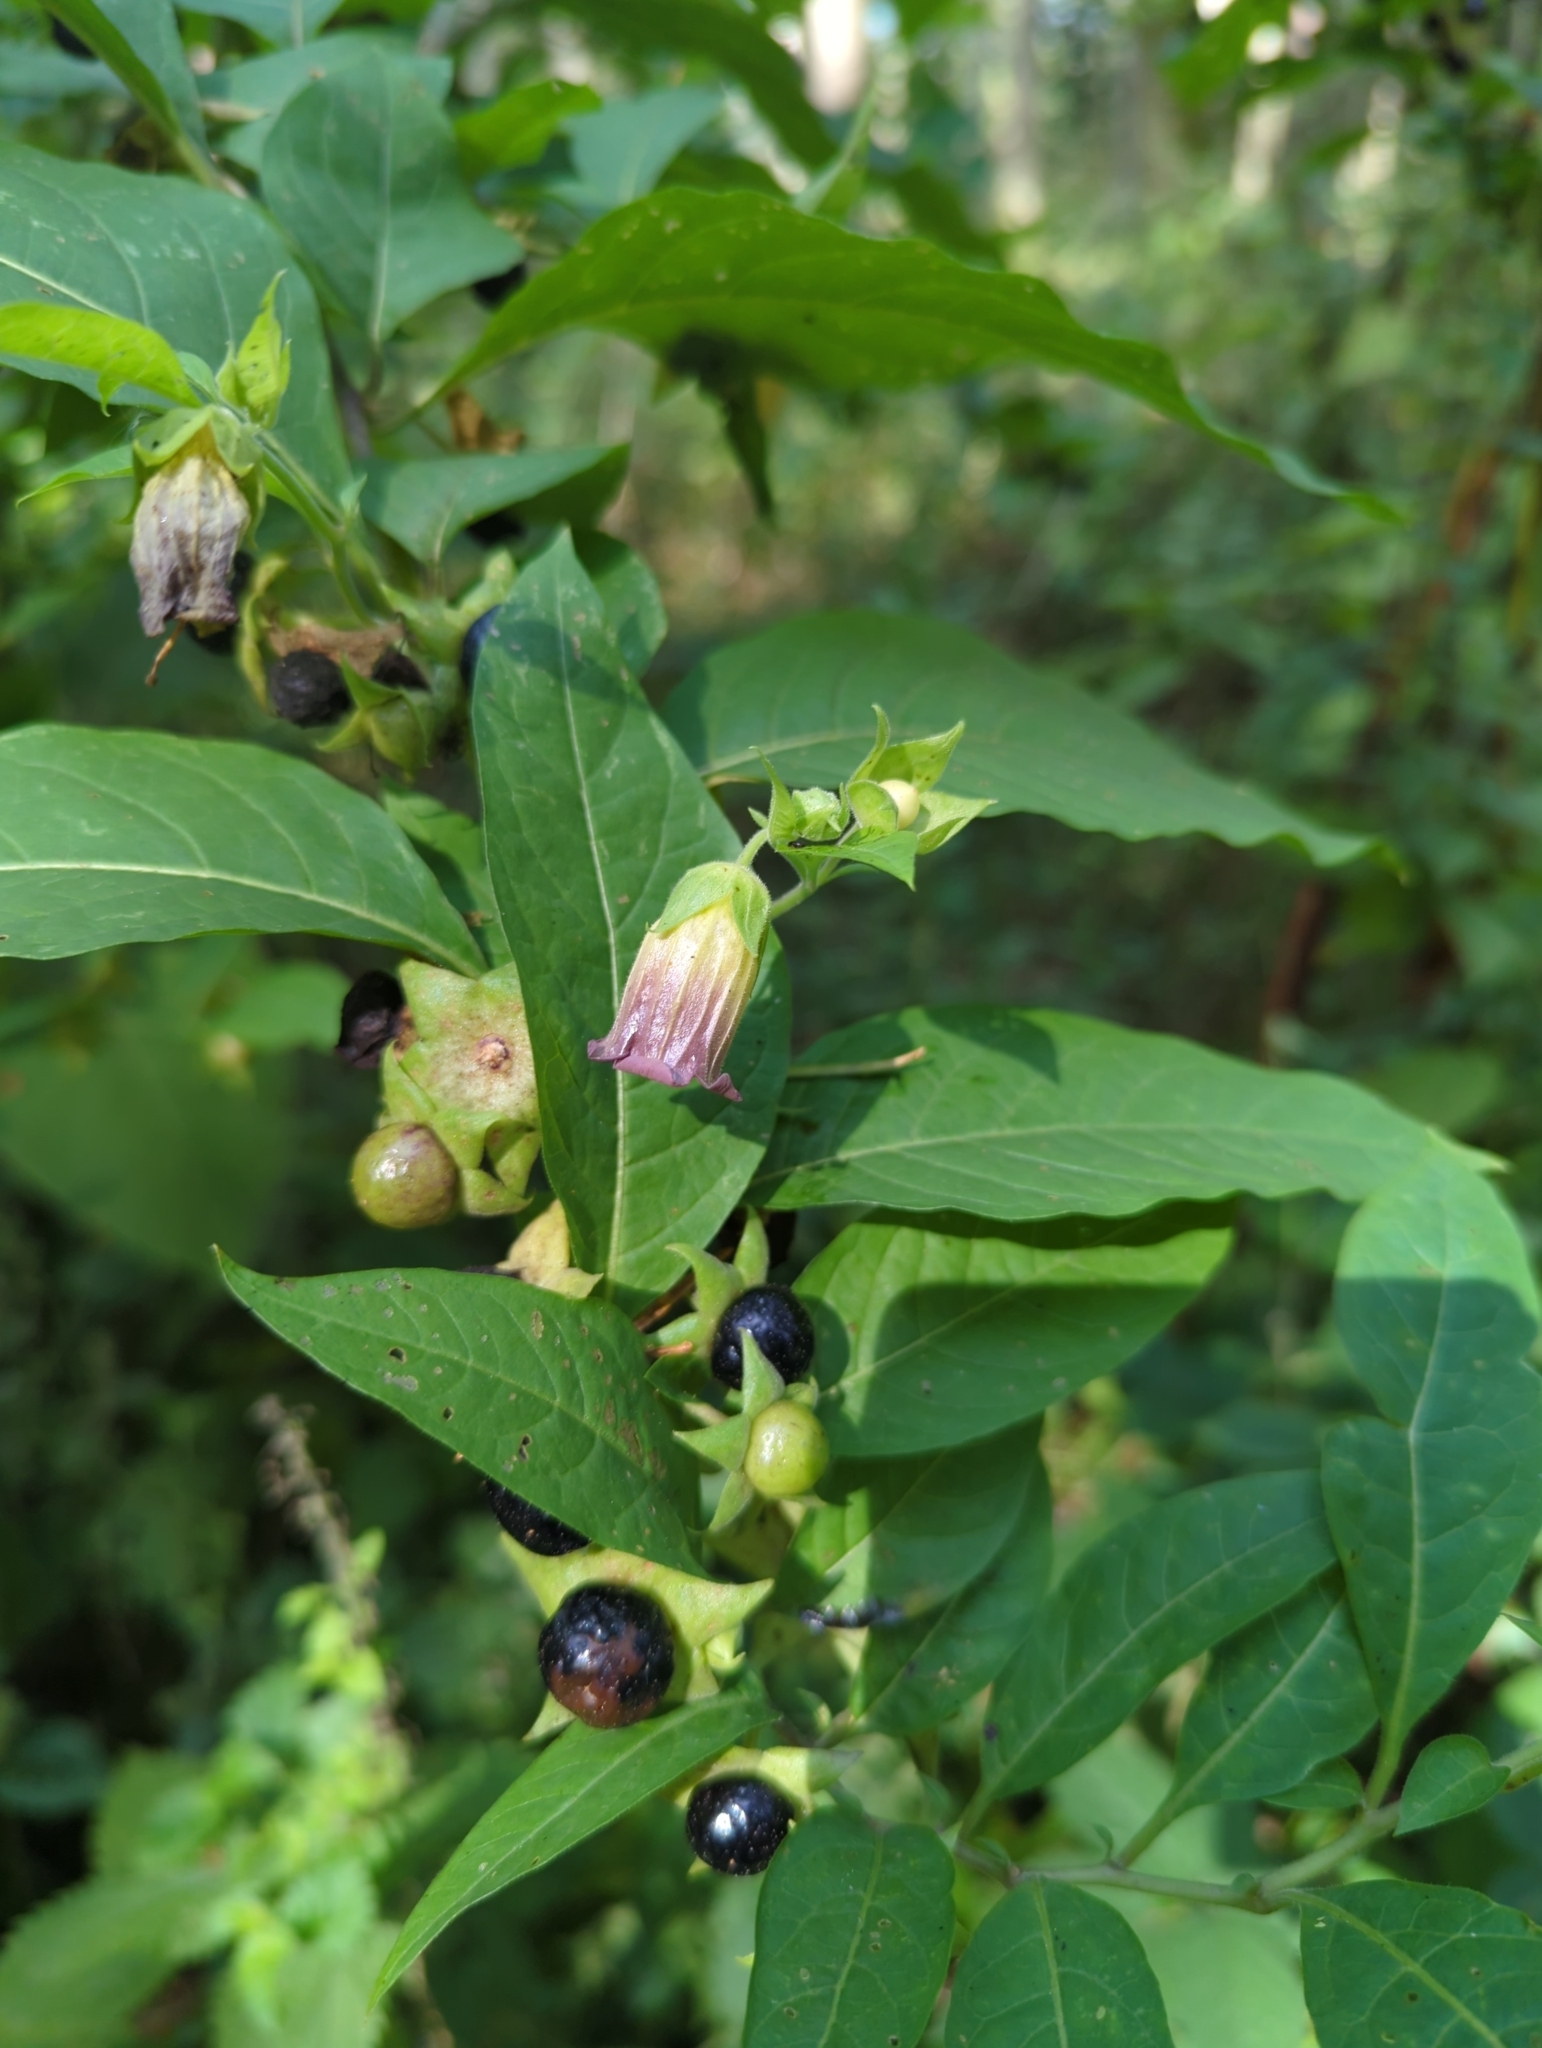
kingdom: Plantae
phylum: Tracheophyta
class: Magnoliopsida
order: Solanales
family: Solanaceae
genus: Atropa
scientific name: Atropa belladonna
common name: Deadly nightshade
